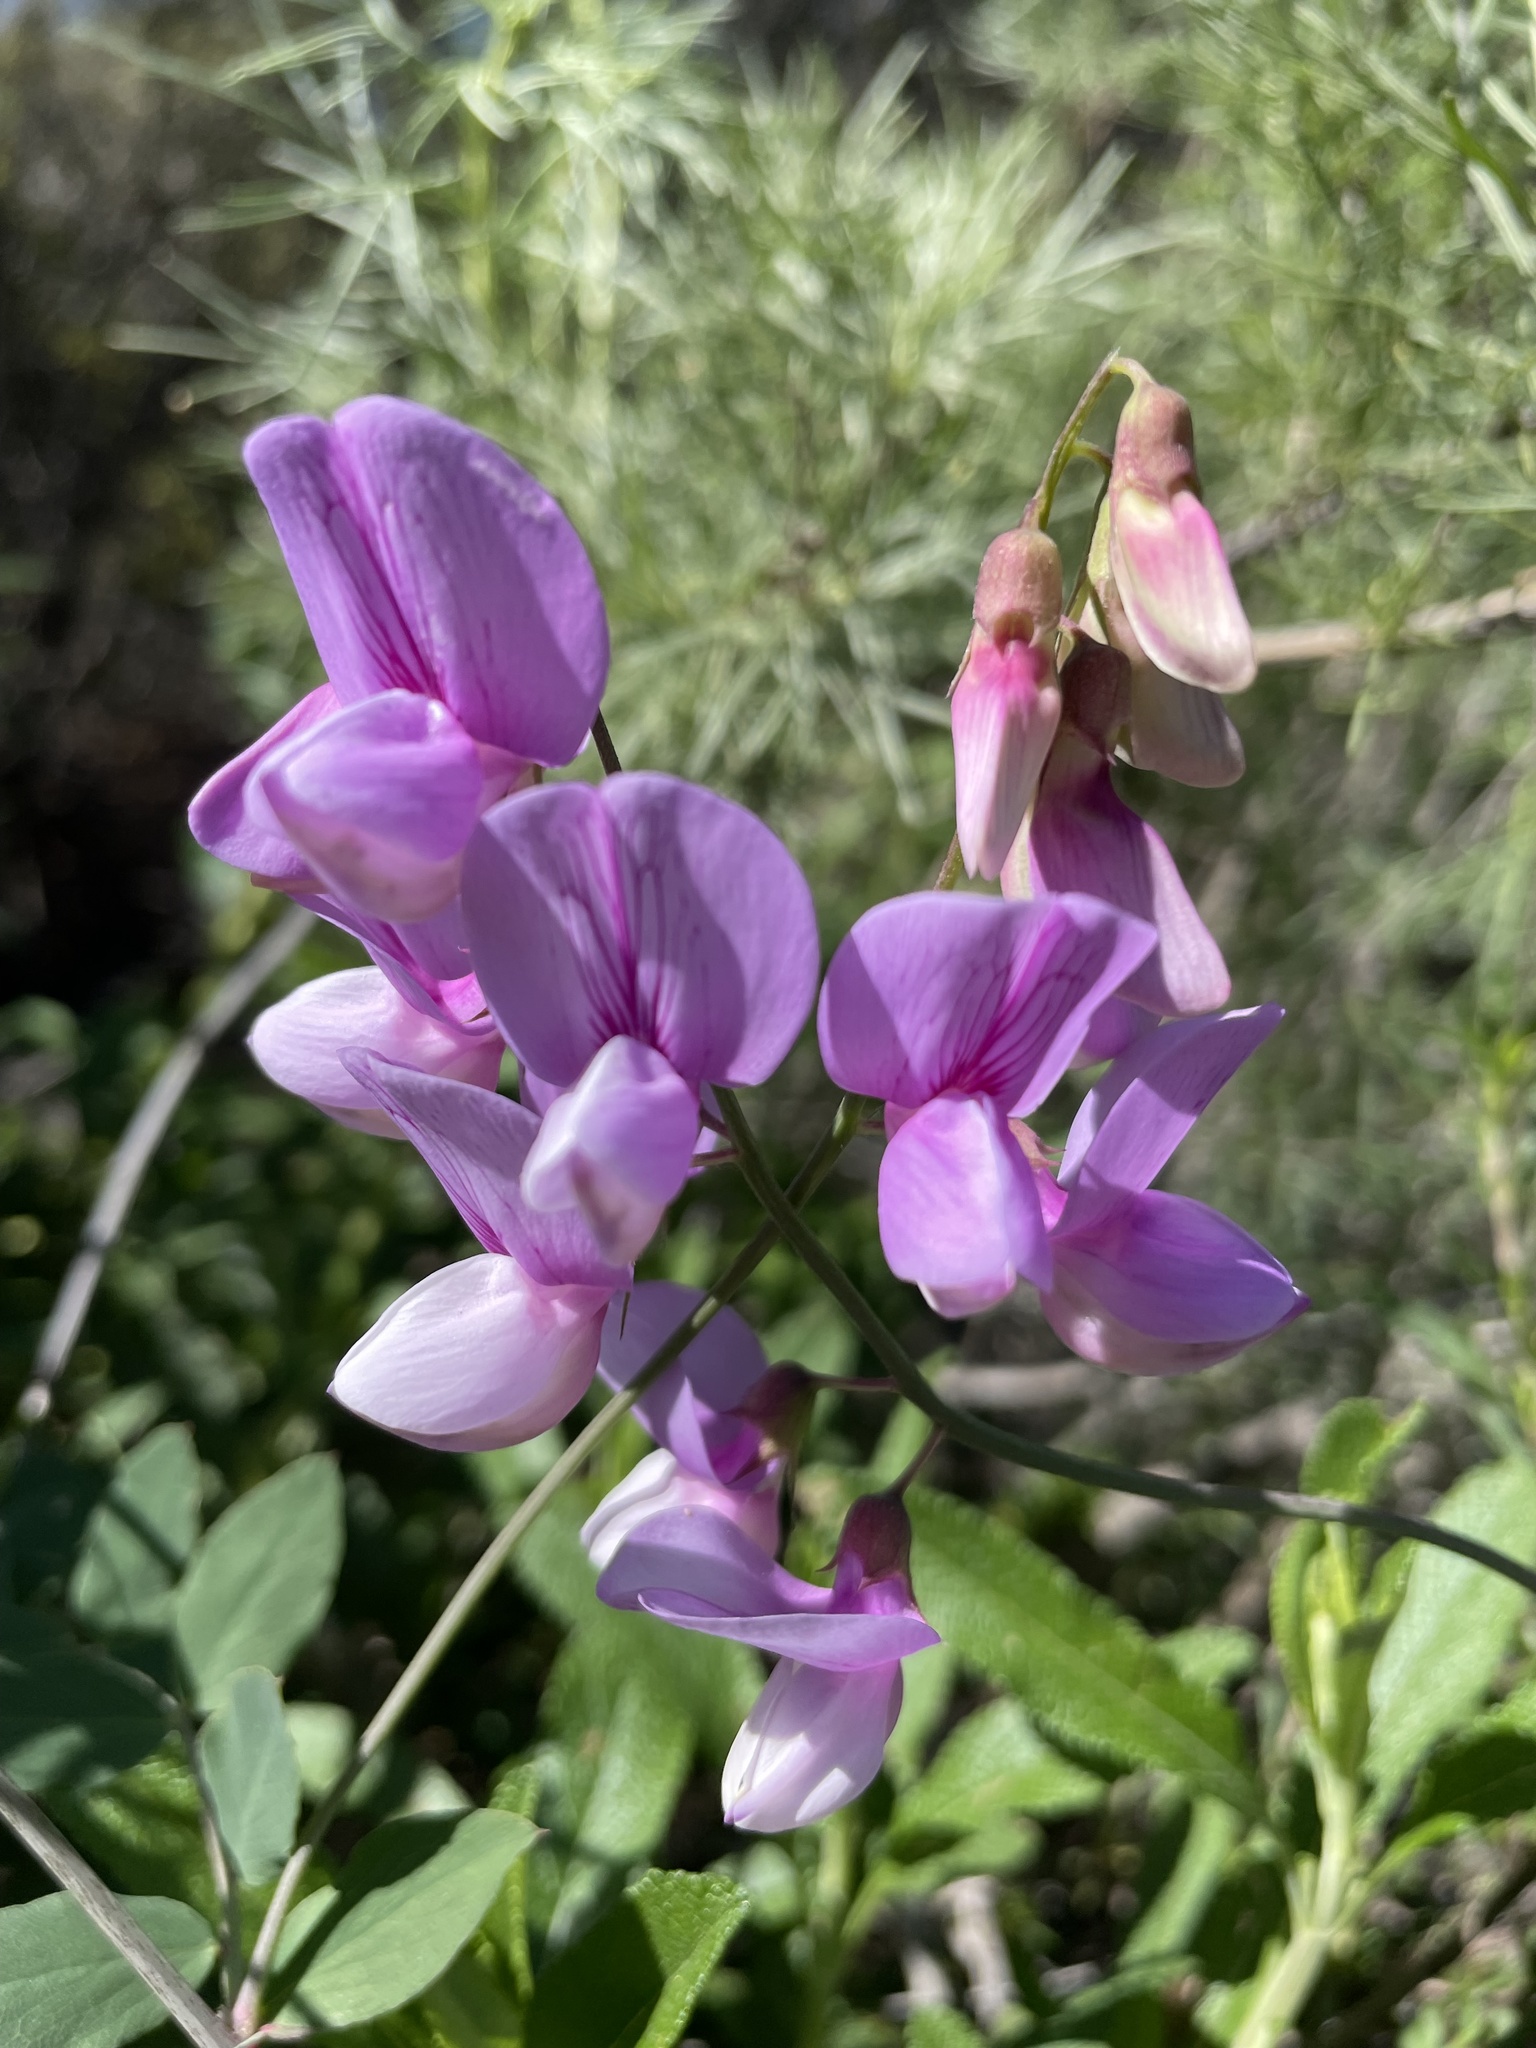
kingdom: Plantae
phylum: Tracheophyta
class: Magnoliopsida
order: Fabales
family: Fabaceae
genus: Lathyrus
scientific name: Lathyrus vestitus
